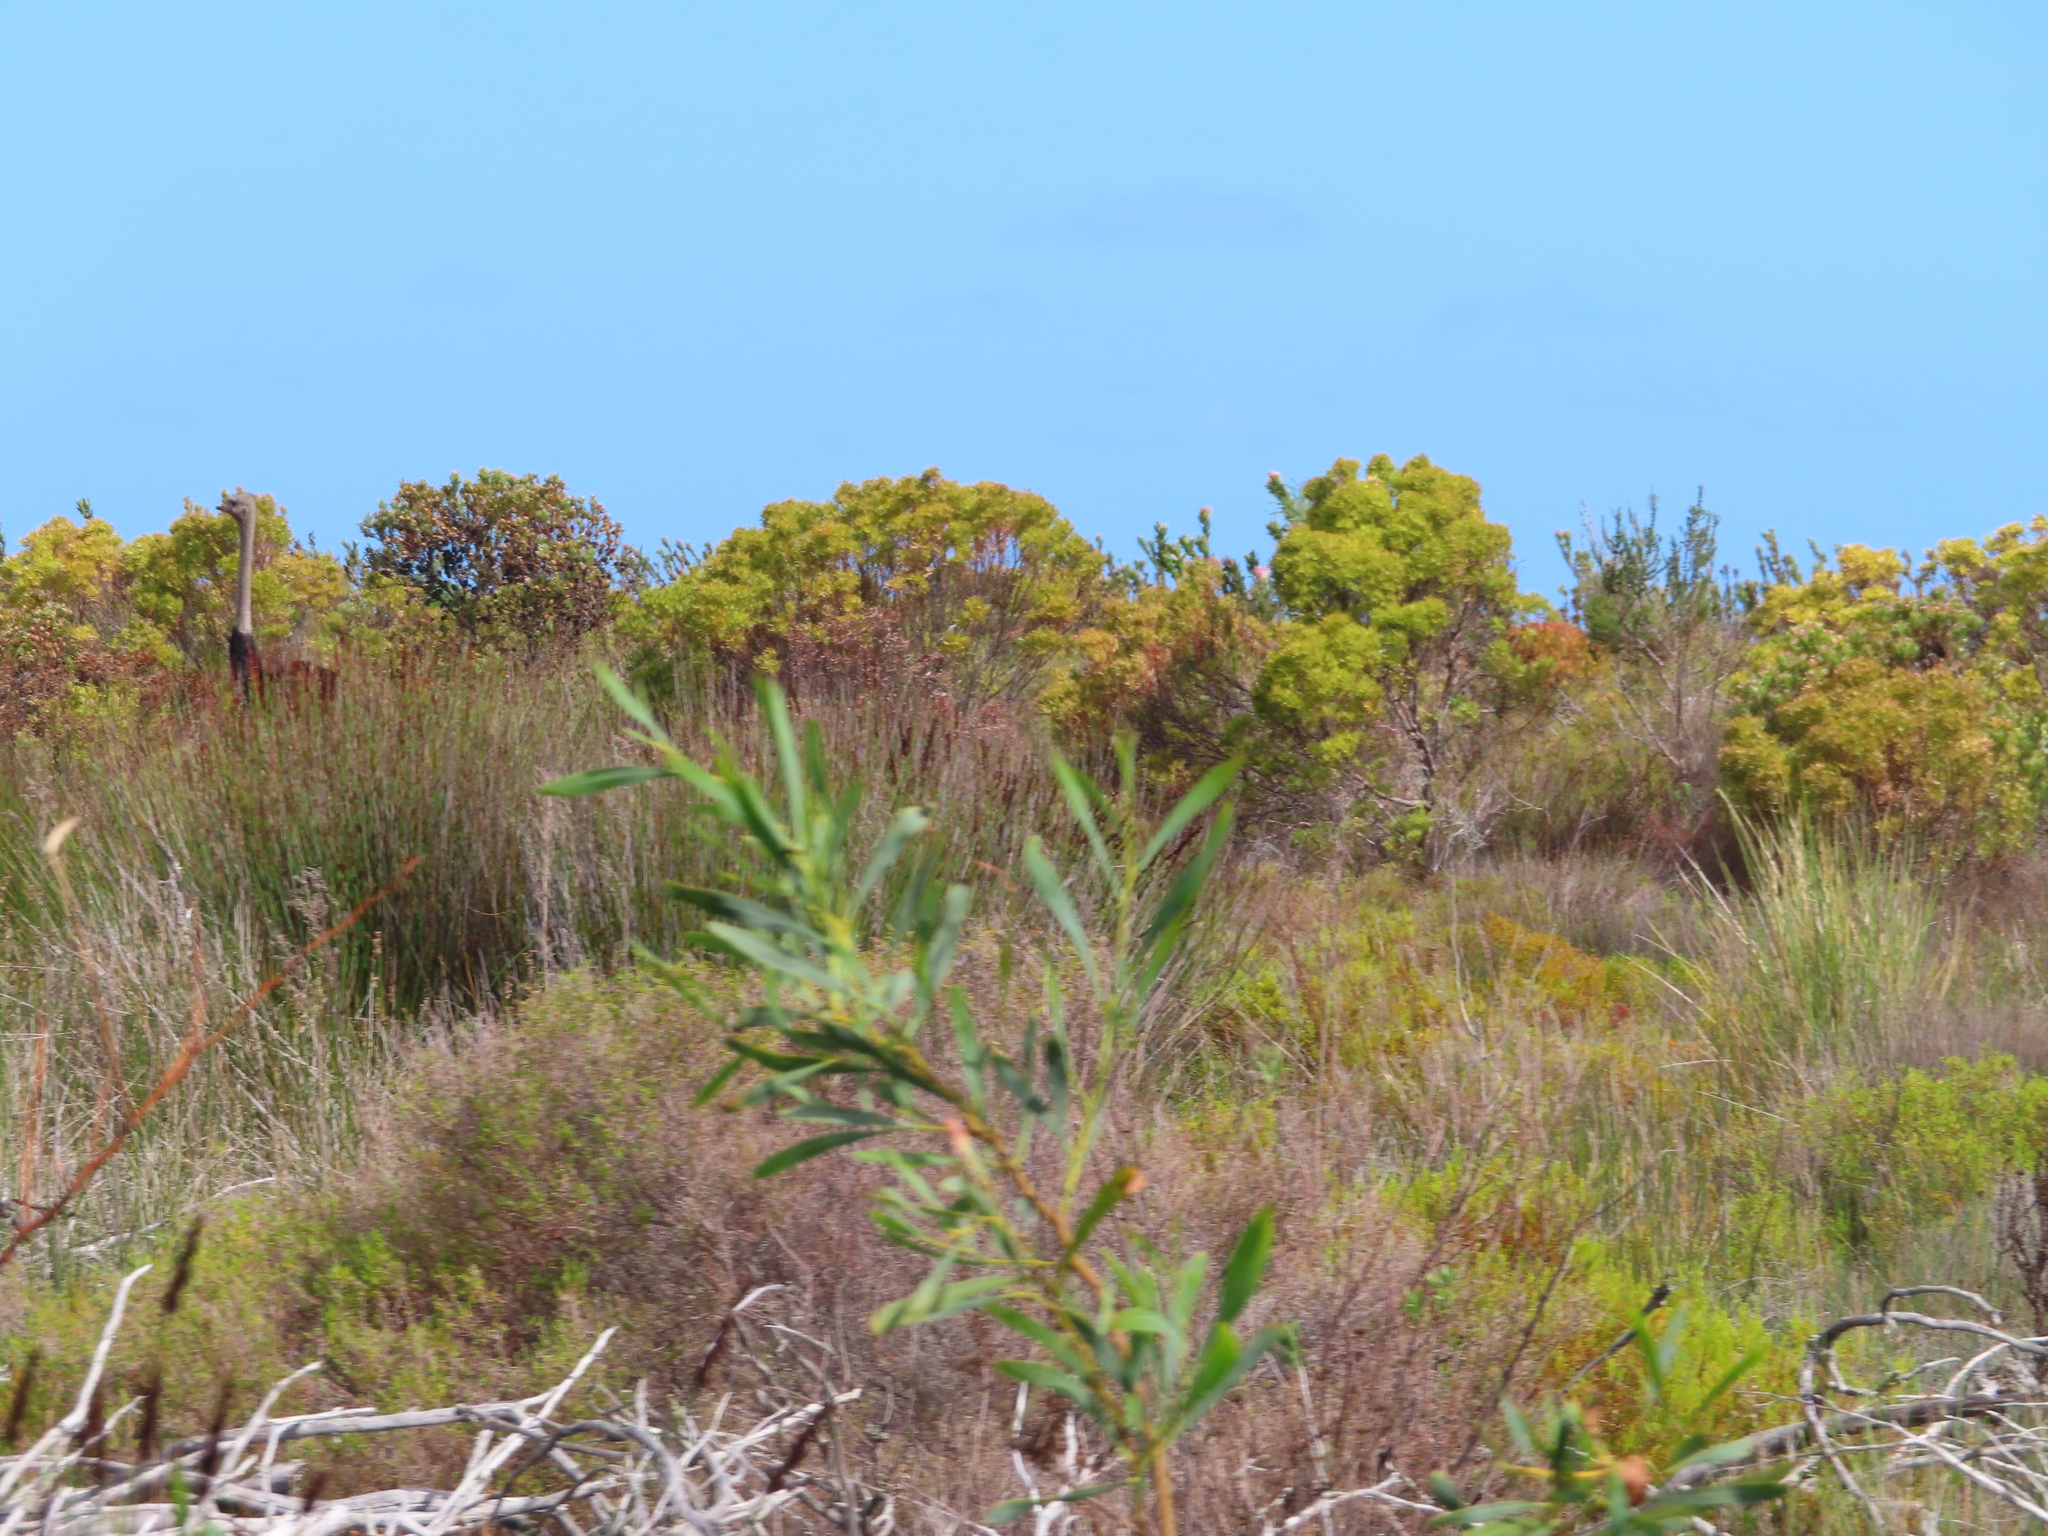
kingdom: Animalia
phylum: Chordata
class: Aves
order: Struthioniformes
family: Struthionidae
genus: Struthio
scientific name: Struthio camelus
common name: Common ostrich
